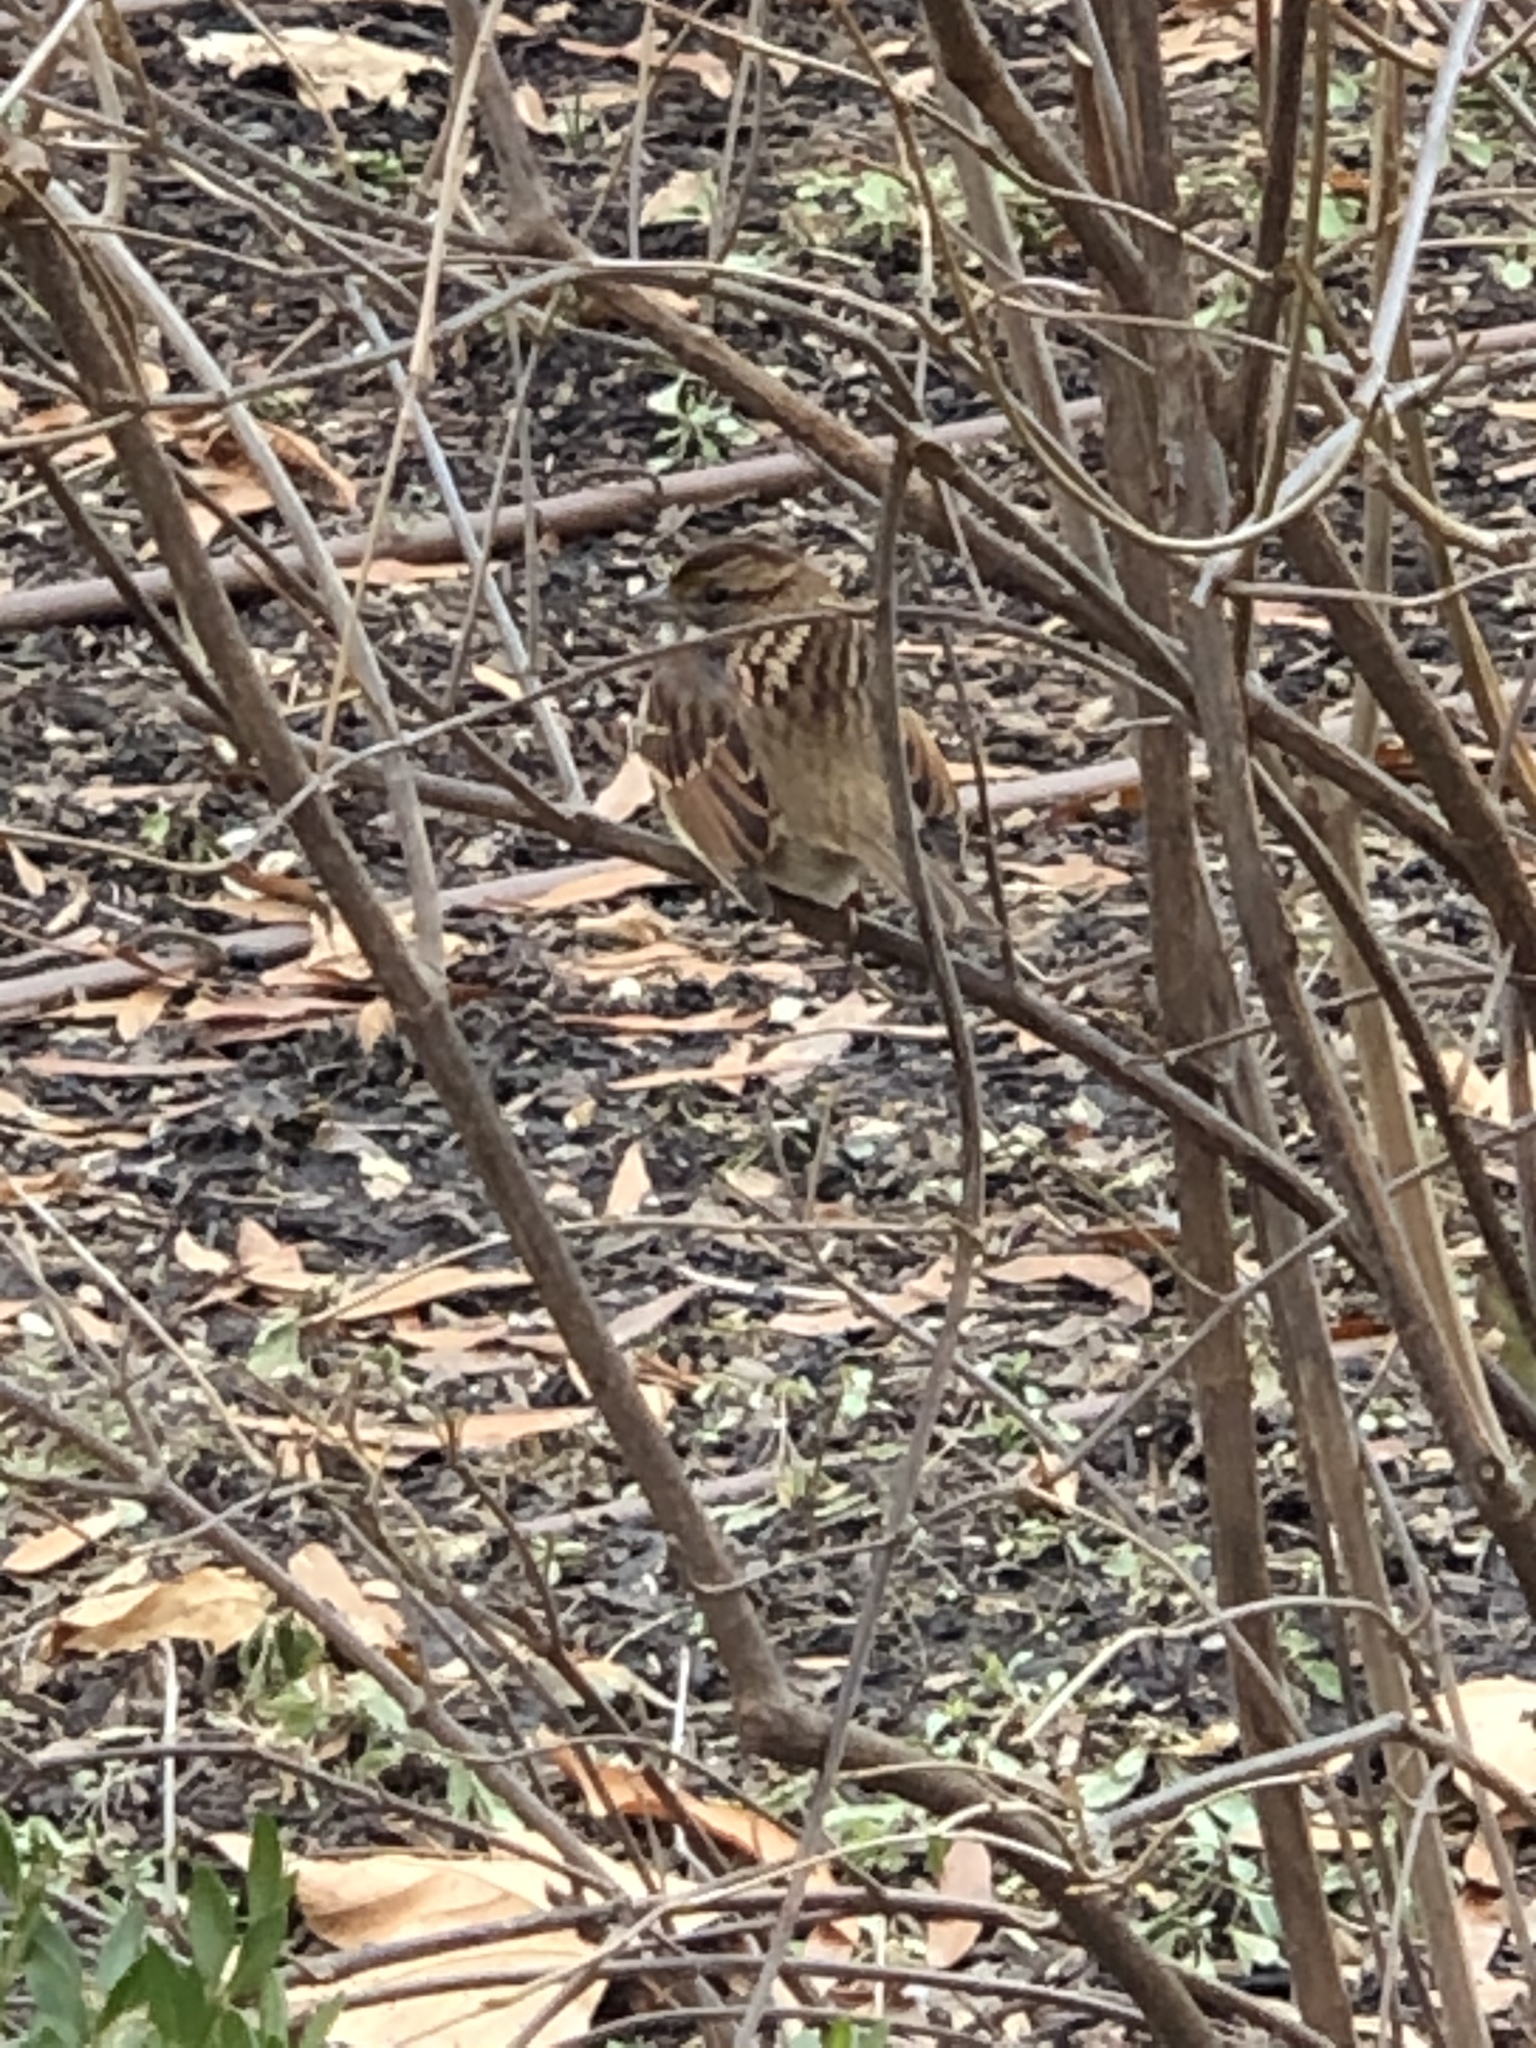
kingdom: Animalia
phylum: Chordata
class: Aves
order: Passeriformes
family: Passerellidae
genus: Zonotrichia
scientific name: Zonotrichia albicollis
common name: White-throated sparrow
